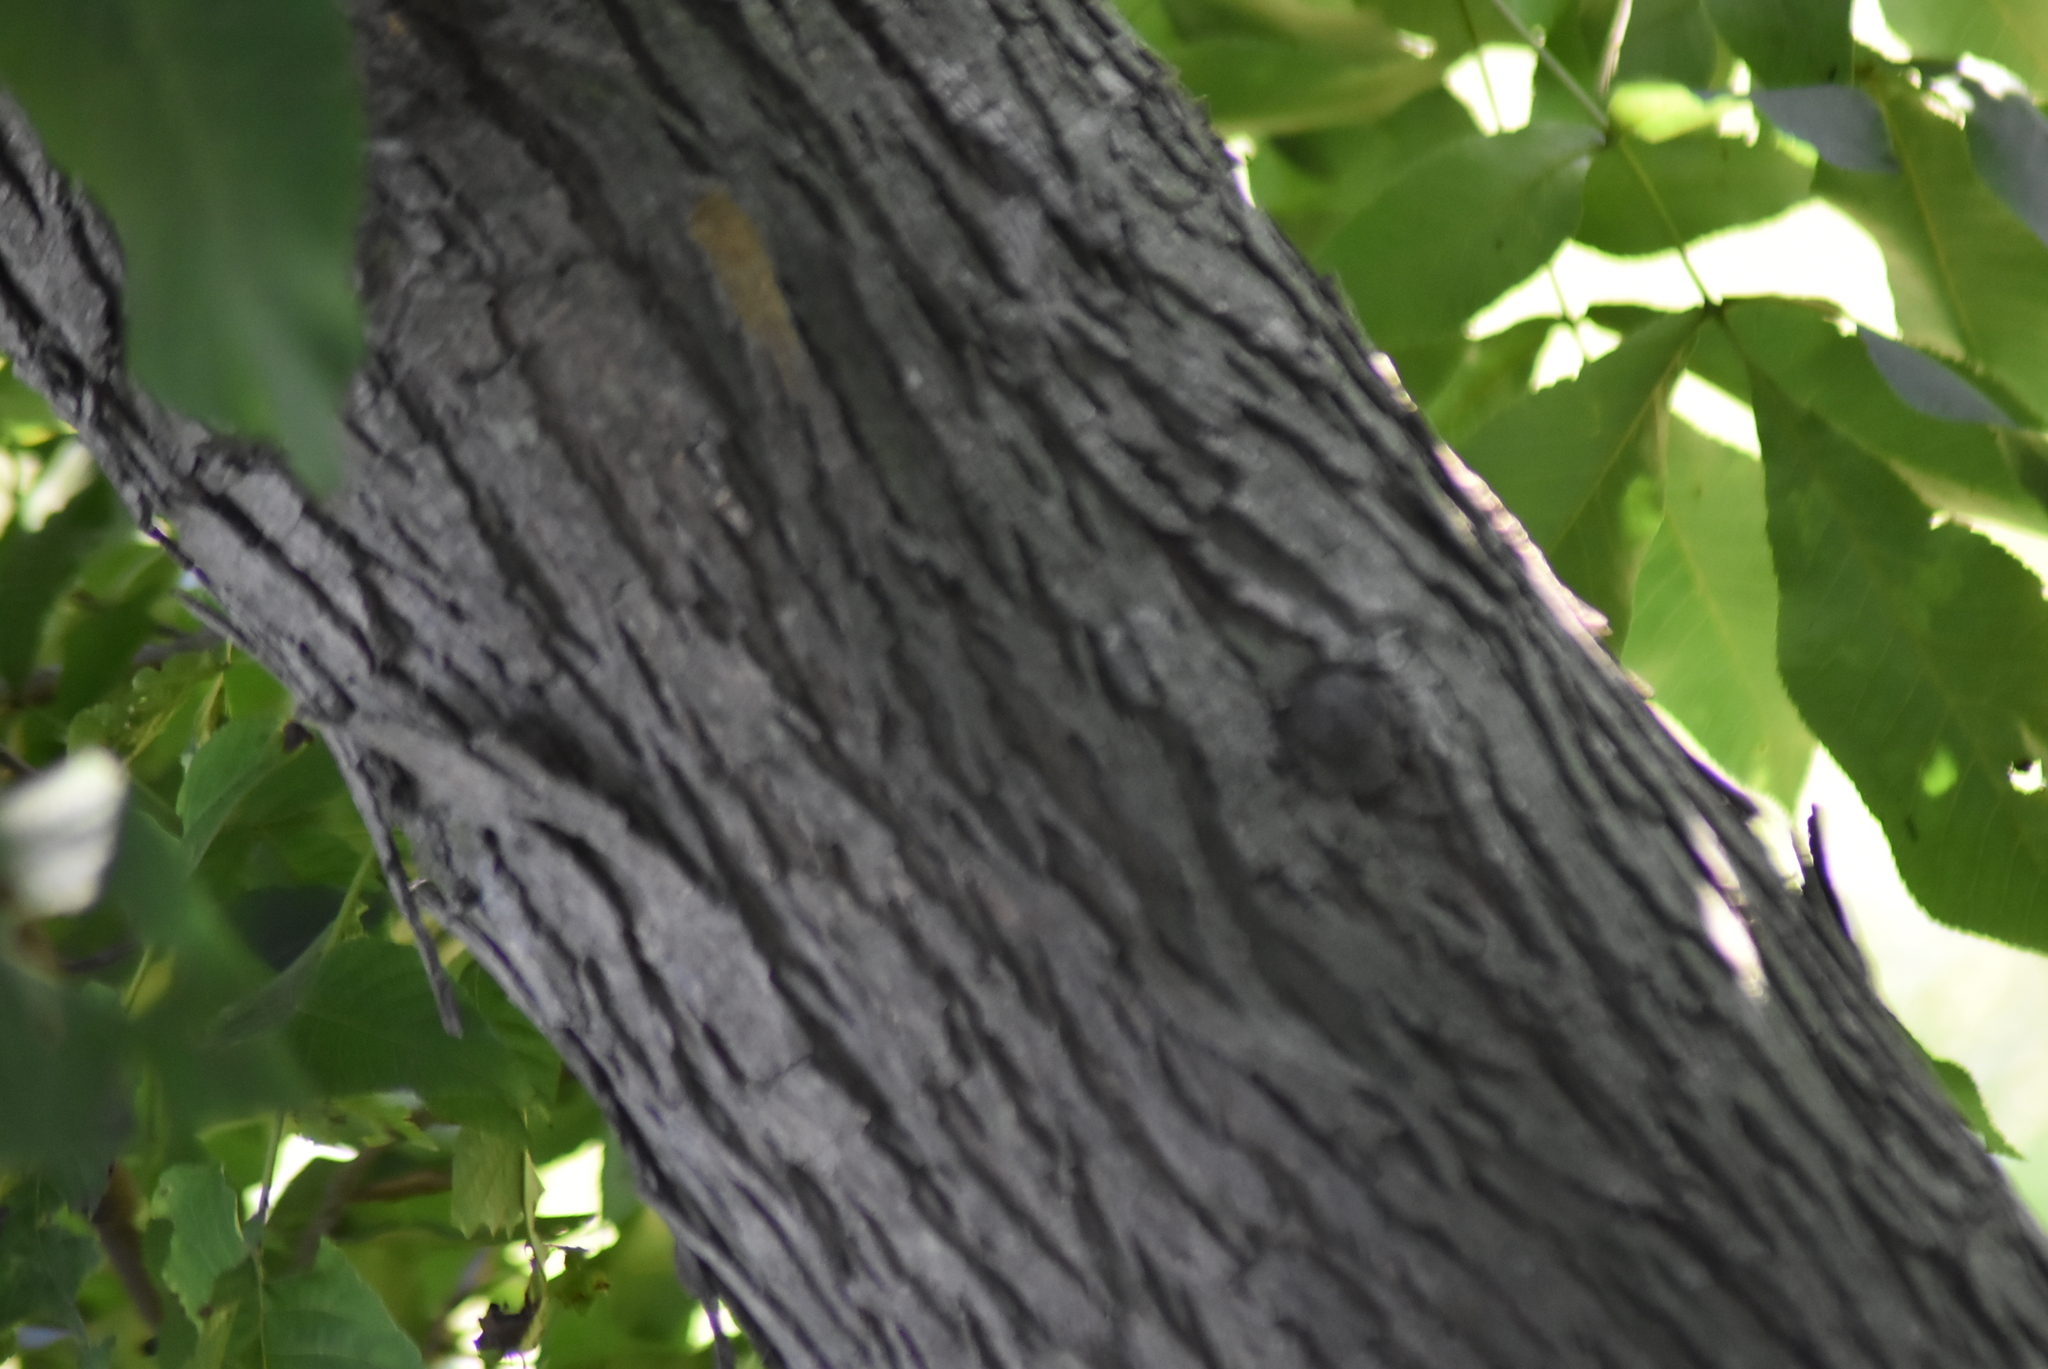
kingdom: Plantae
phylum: Tracheophyta
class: Magnoliopsida
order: Fagales
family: Juglandaceae
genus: Carya
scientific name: Carya ovata
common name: Shagbark hickory
